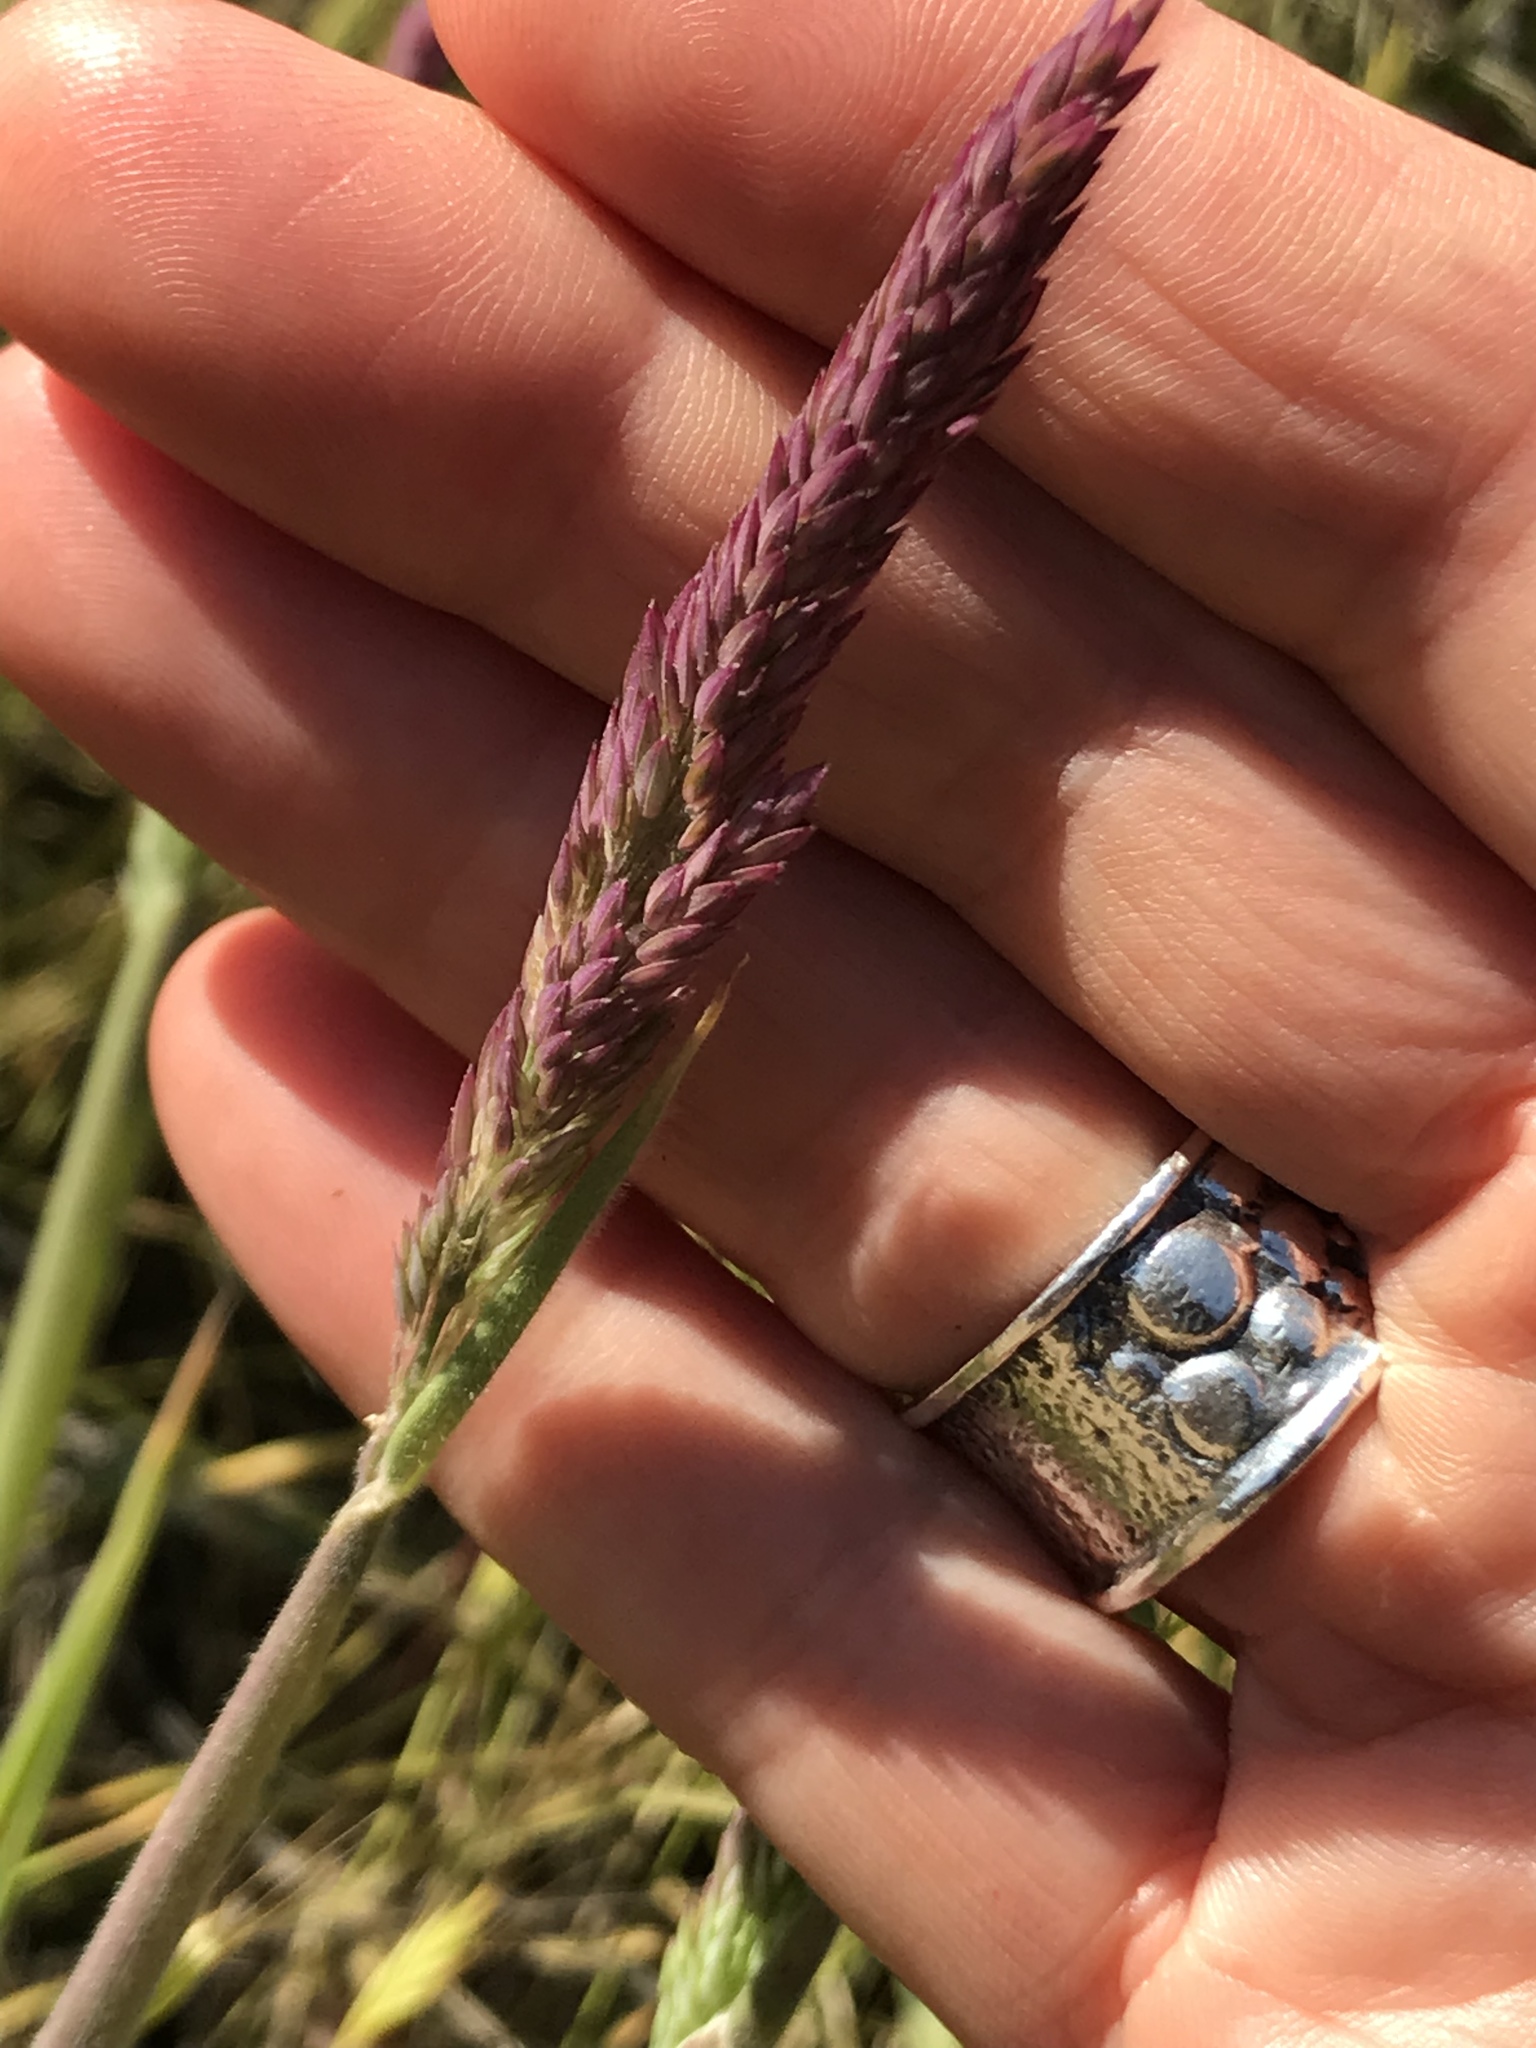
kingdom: Plantae
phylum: Tracheophyta
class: Liliopsida
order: Poales
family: Poaceae
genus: Holcus
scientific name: Holcus lanatus
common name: Yorkshire-fog
